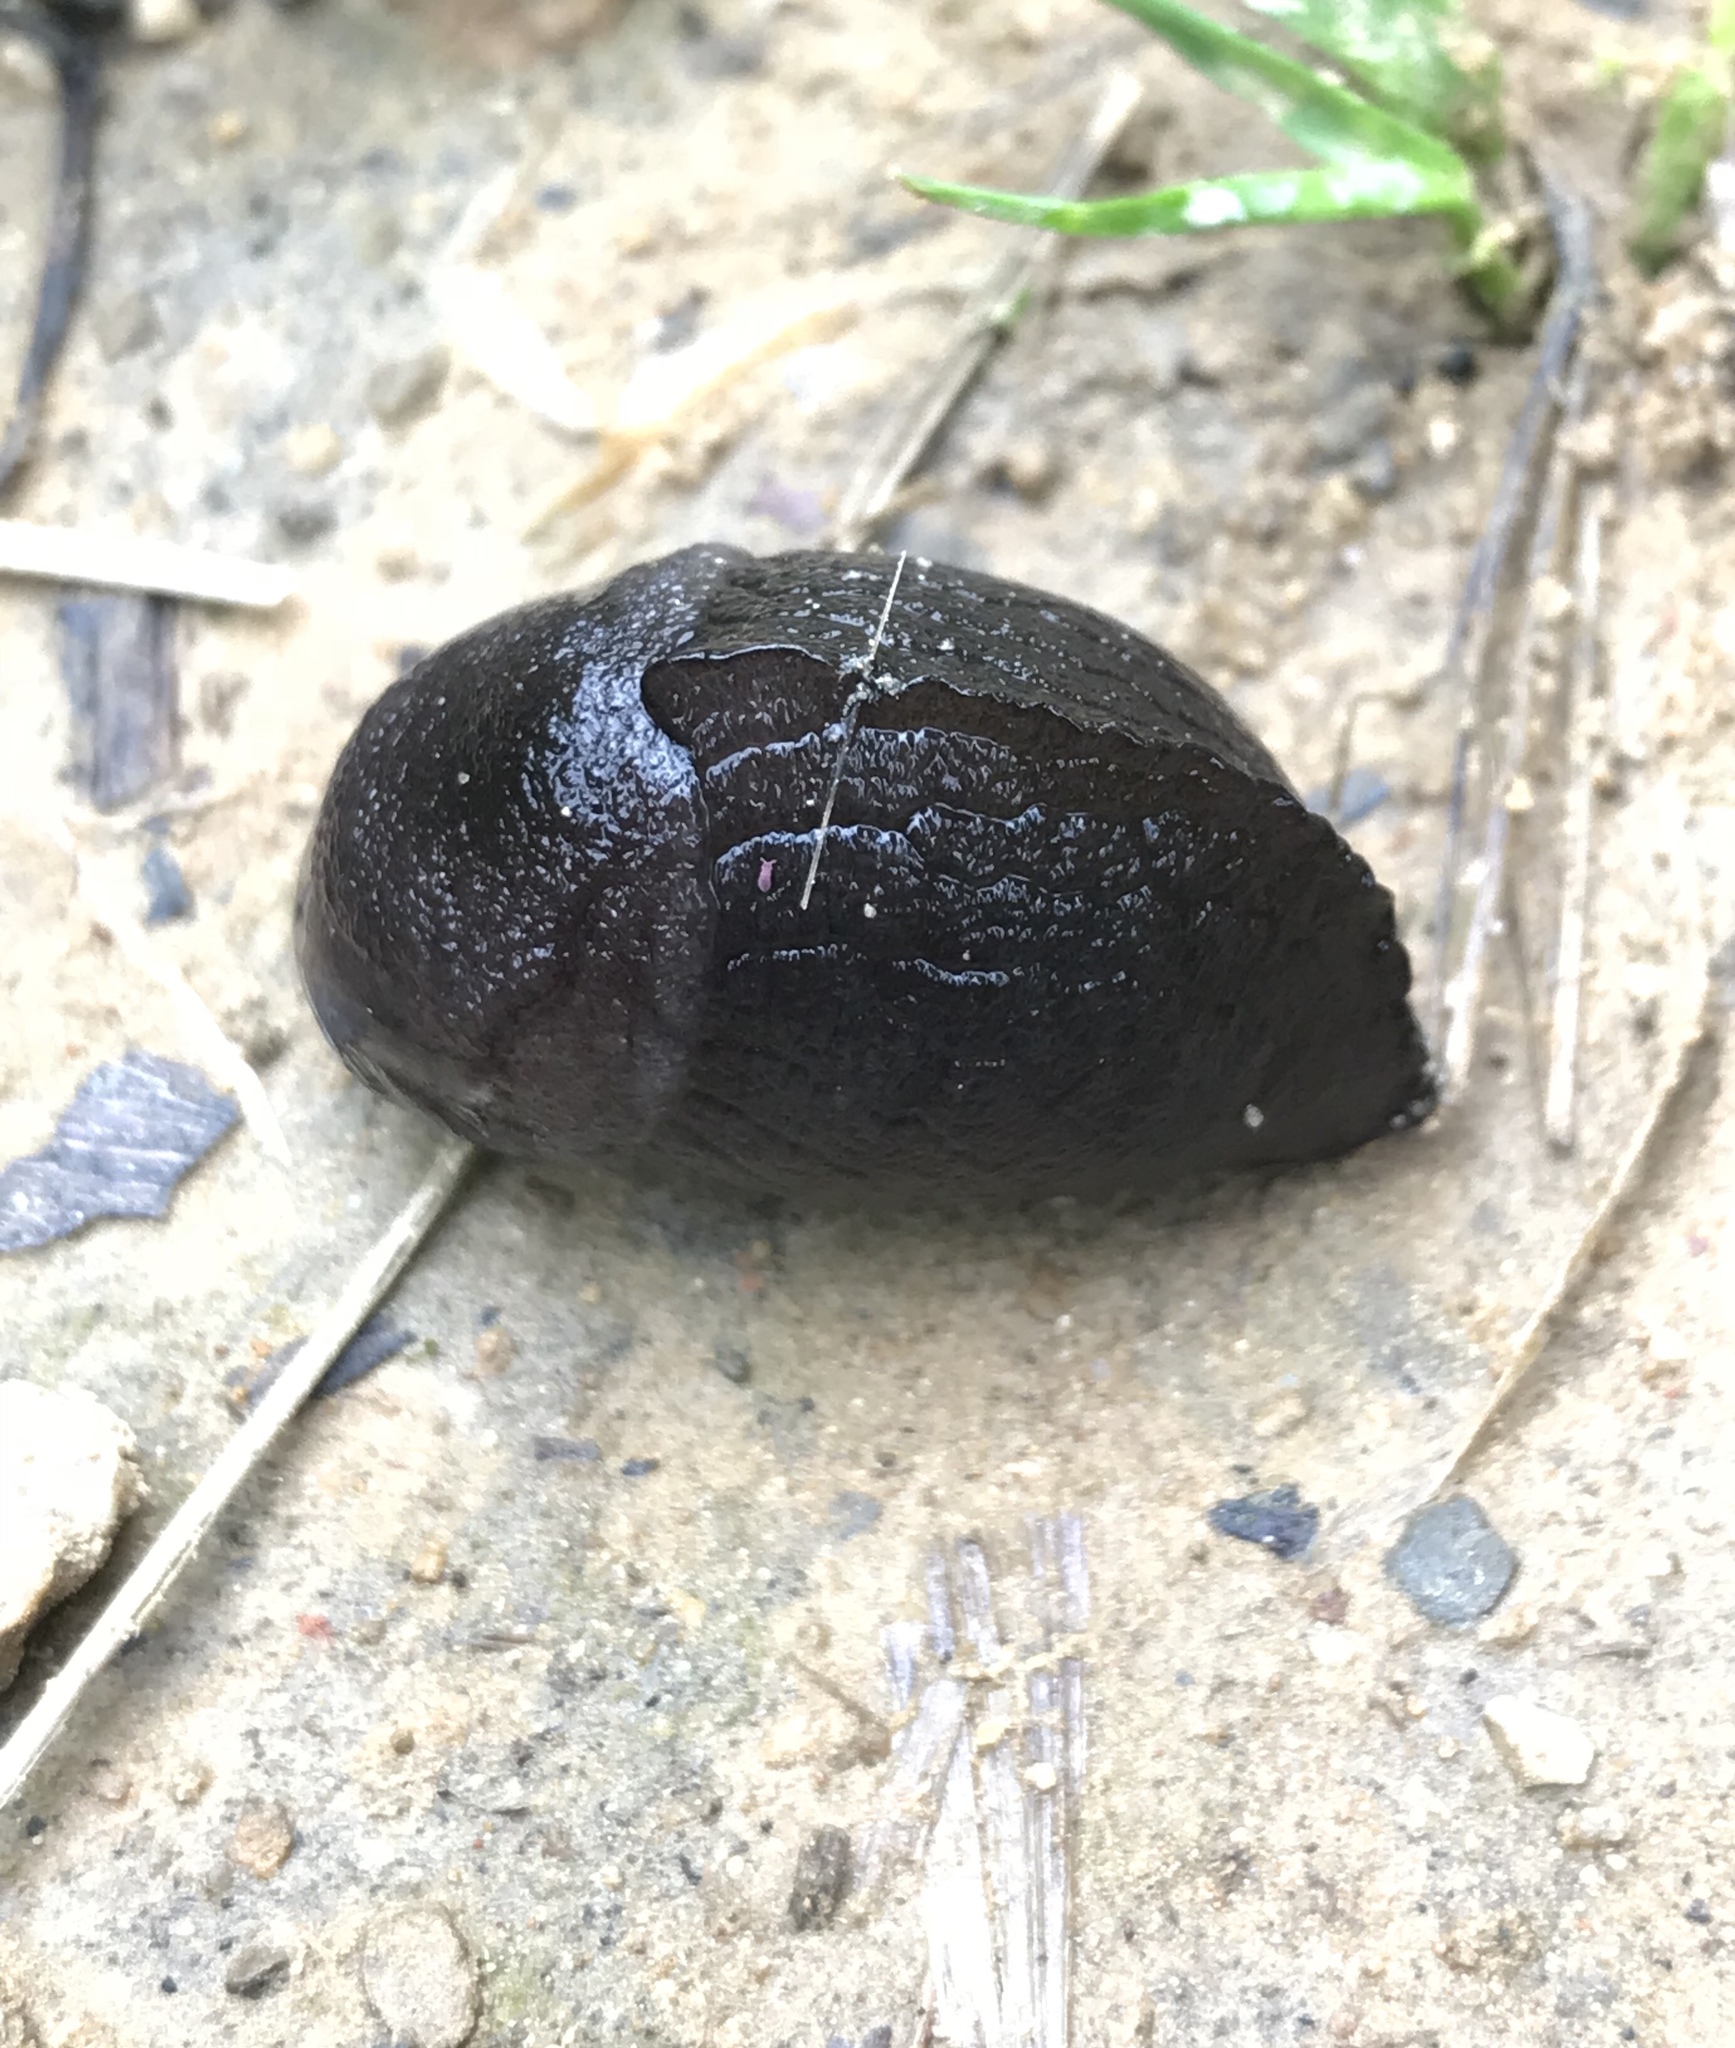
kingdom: Animalia
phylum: Mollusca
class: Gastropoda
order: Stylommatophora
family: Milacidae
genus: Milax
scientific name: Milax gagates
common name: Greenhouse slug
